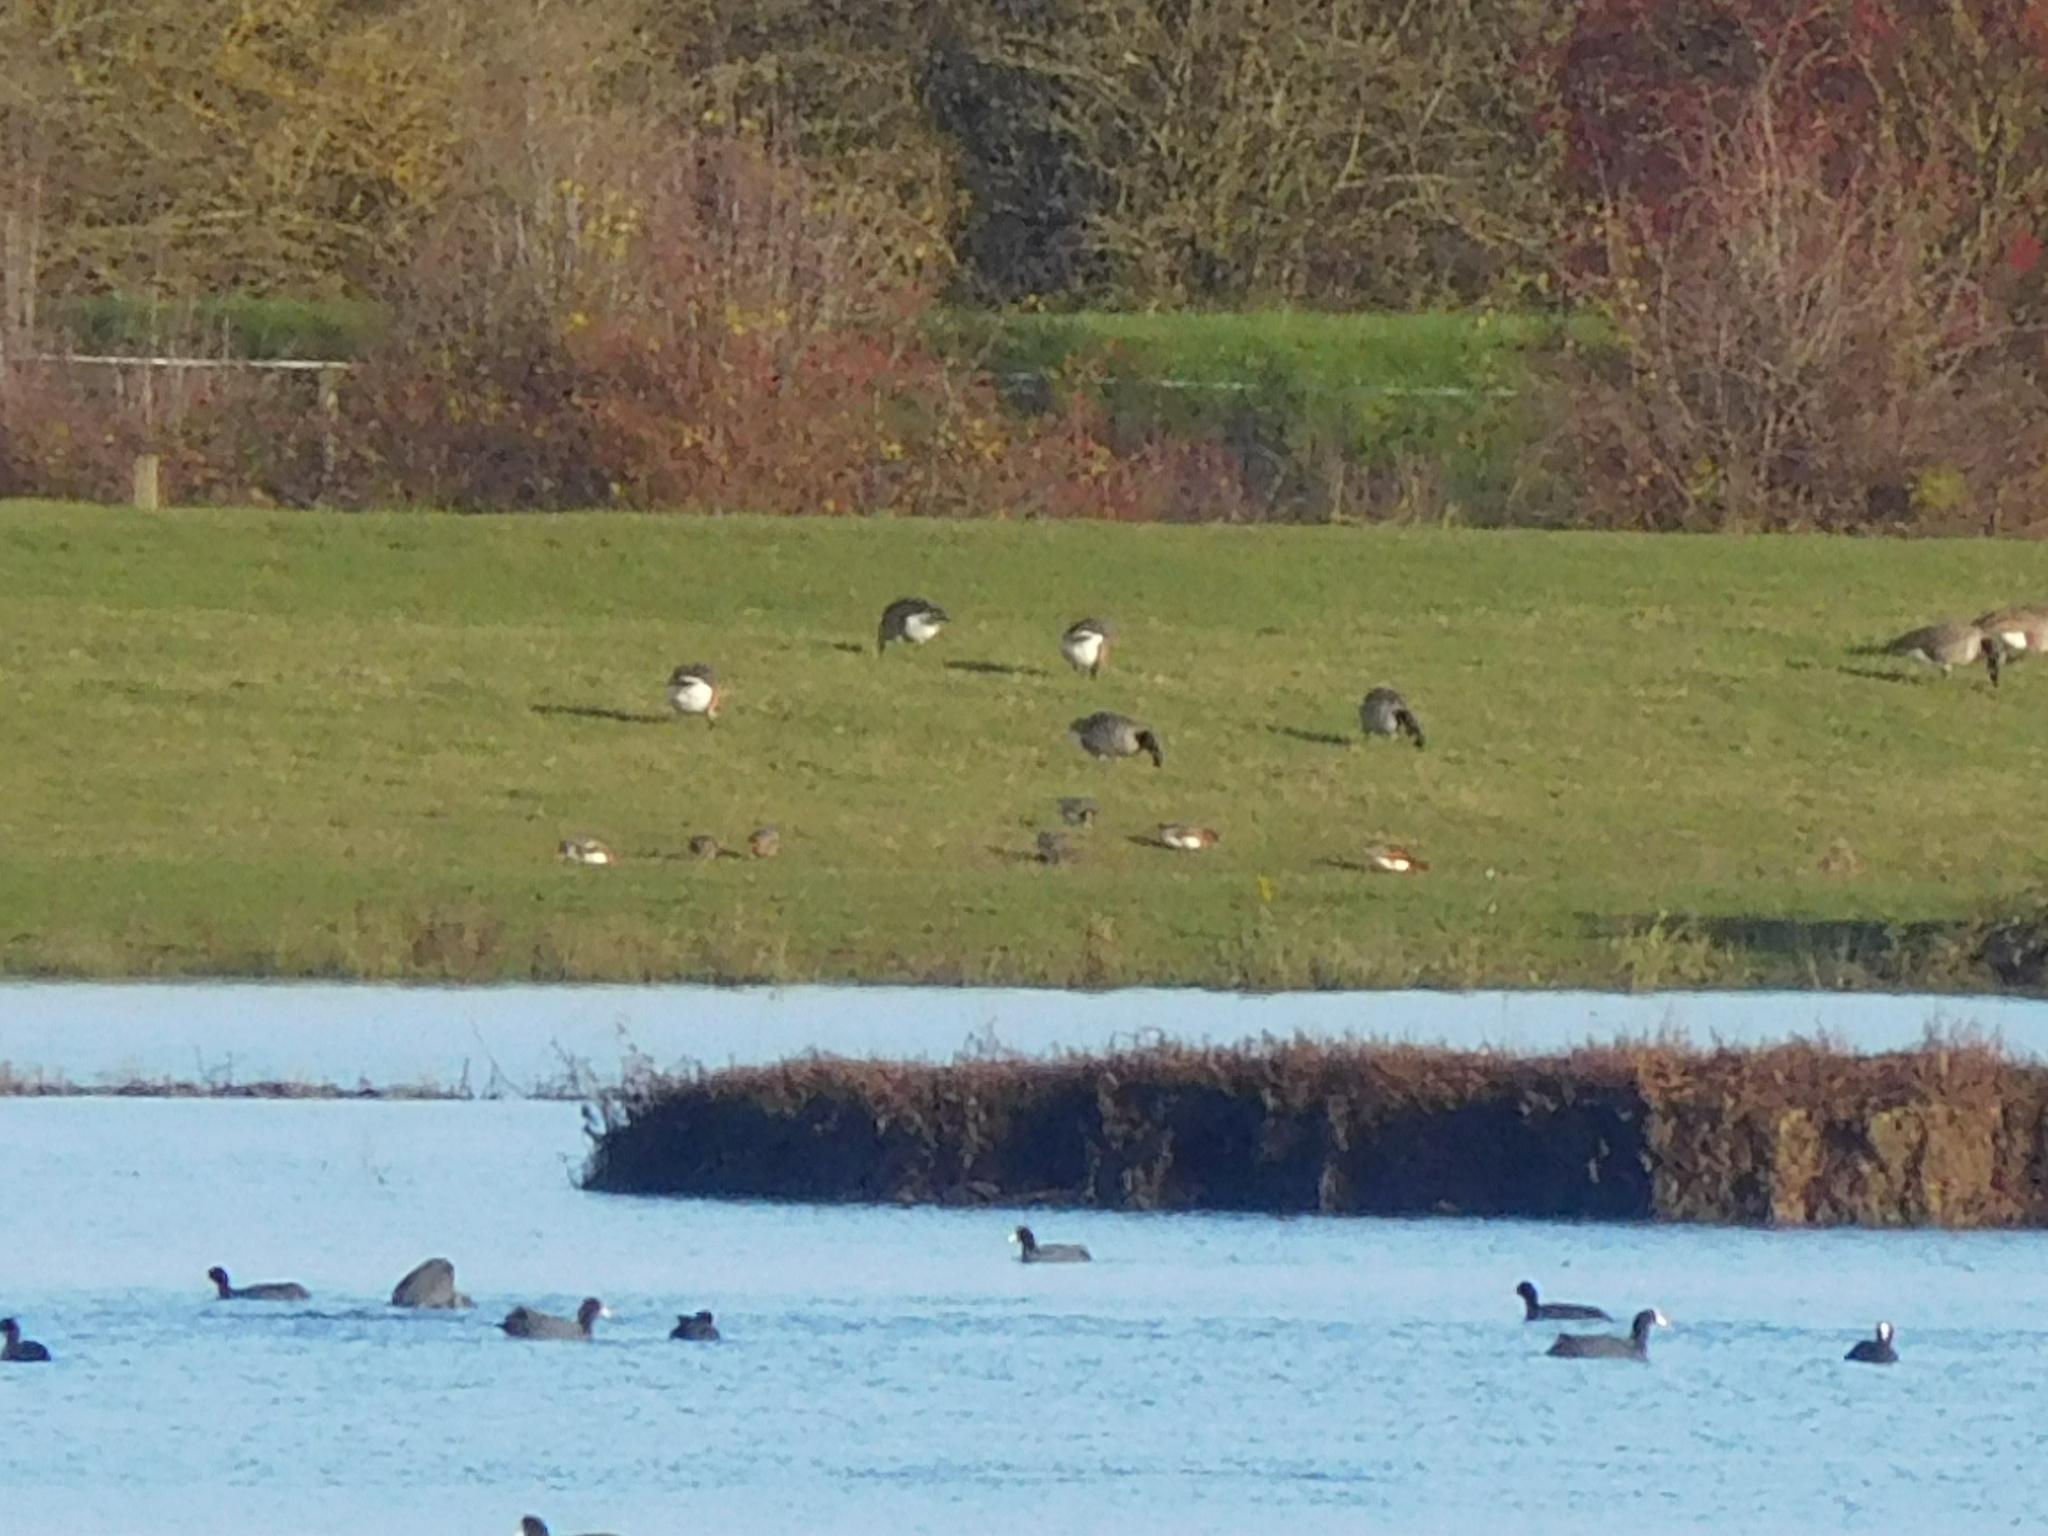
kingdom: Animalia
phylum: Chordata
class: Aves
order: Anseriformes
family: Anatidae
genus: Branta
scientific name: Branta canadensis
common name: Canada goose
